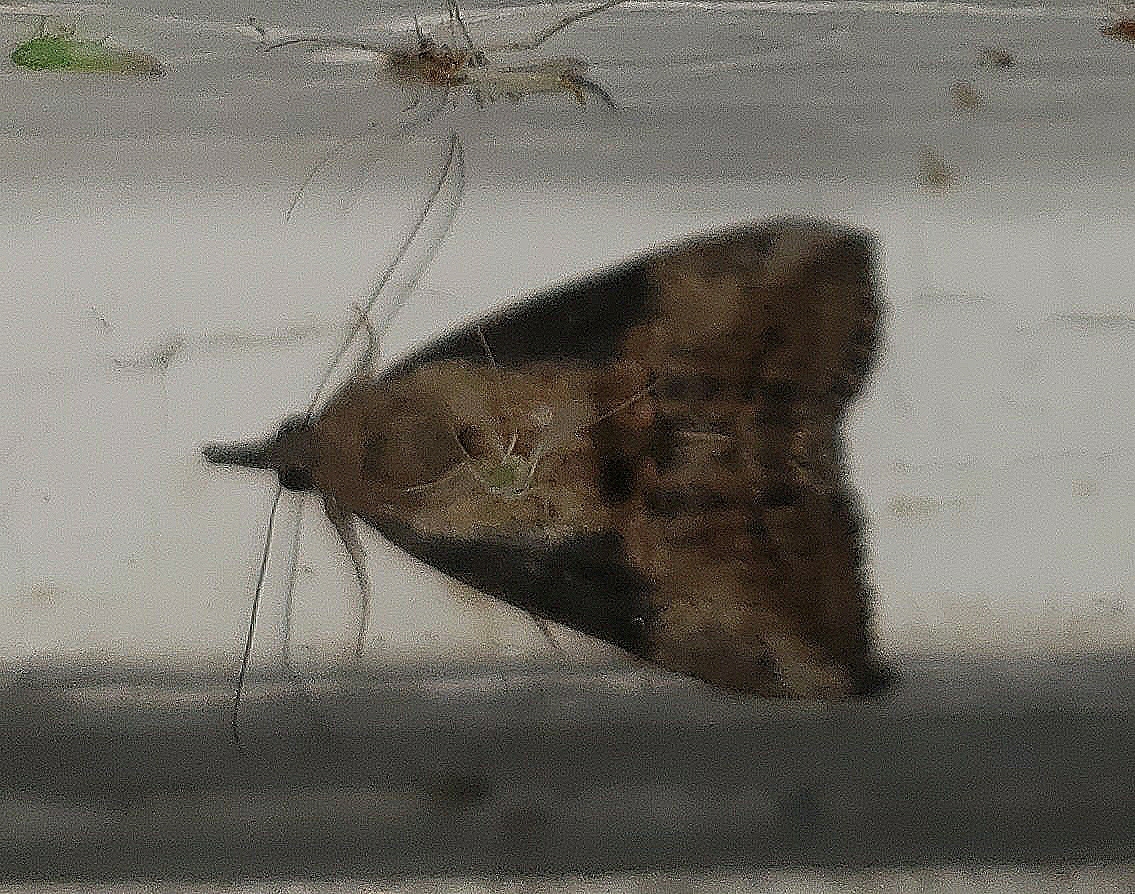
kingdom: Animalia
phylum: Arthropoda
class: Insecta
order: Lepidoptera
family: Erebidae
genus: Hypena
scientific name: Hypena scabra
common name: Green cloverworm
